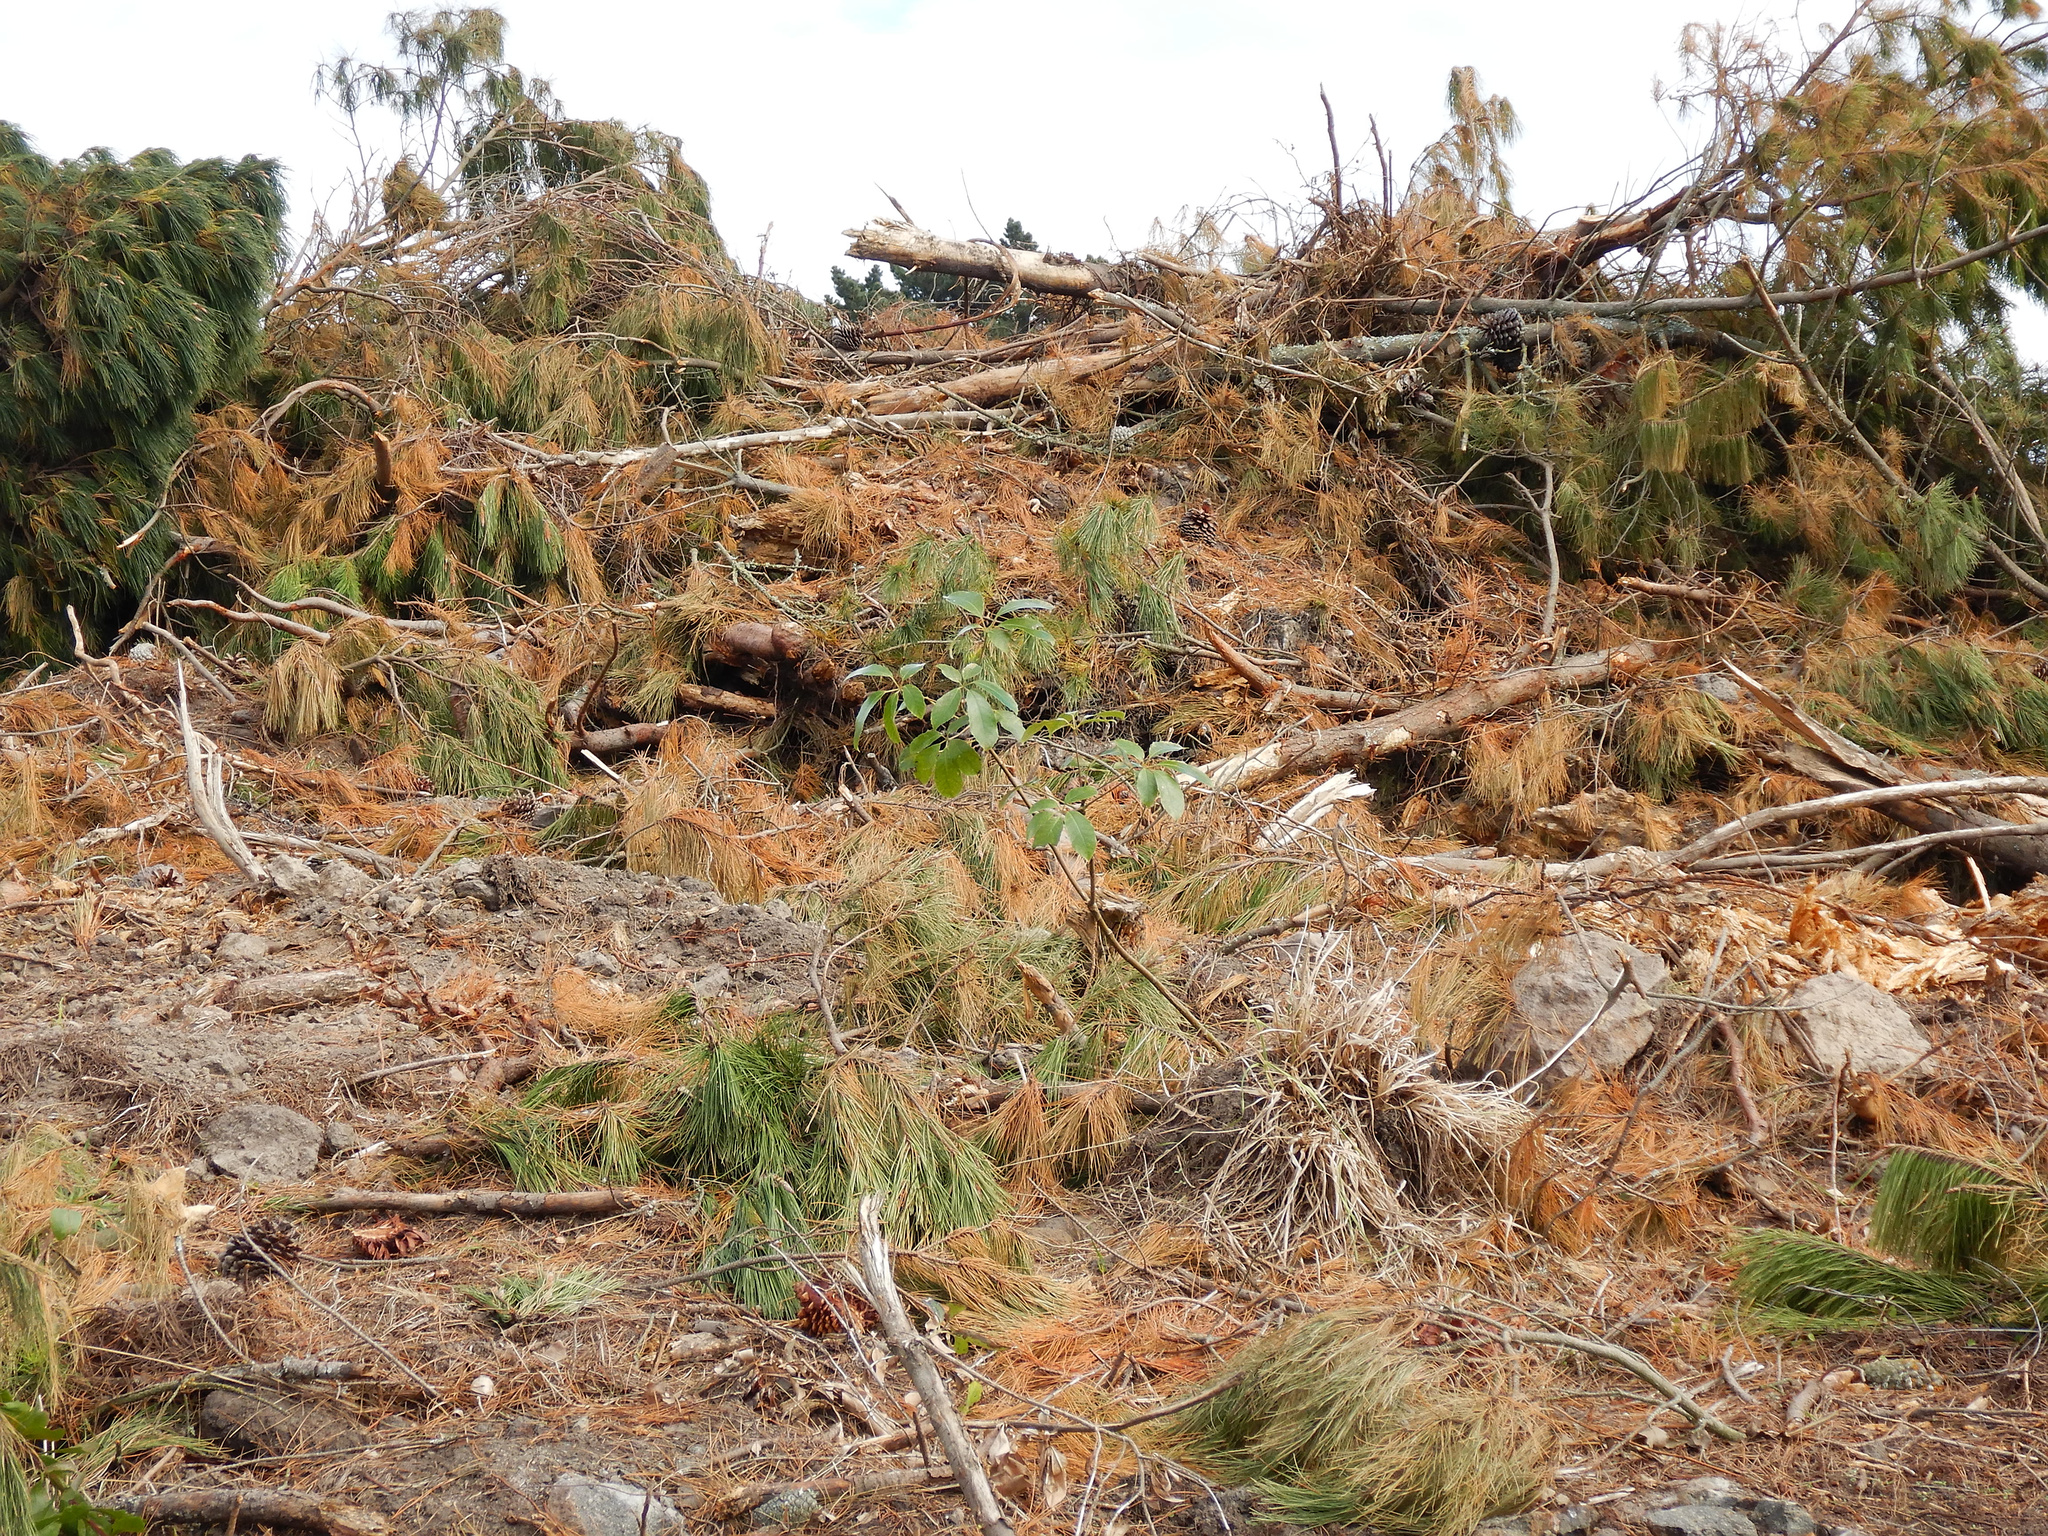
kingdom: Plantae
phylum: Tracheophyta
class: Magnoliopsida
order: Apiales
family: Araliaceae
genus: Neopanax
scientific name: Neopanax arboreus
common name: Five-fingers
